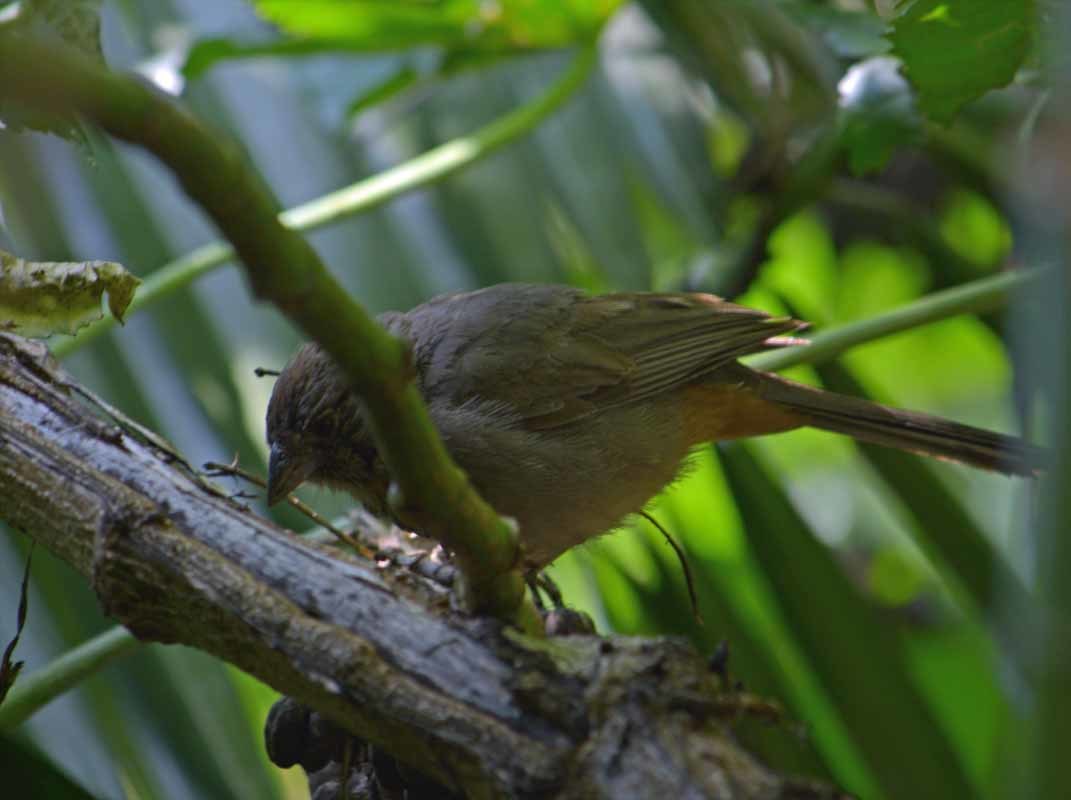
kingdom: Animalia
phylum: Chordata
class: Aves
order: Passeriformes
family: Passerellidae
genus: Melozone
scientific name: Melozone fusca
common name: Canyon towhee
